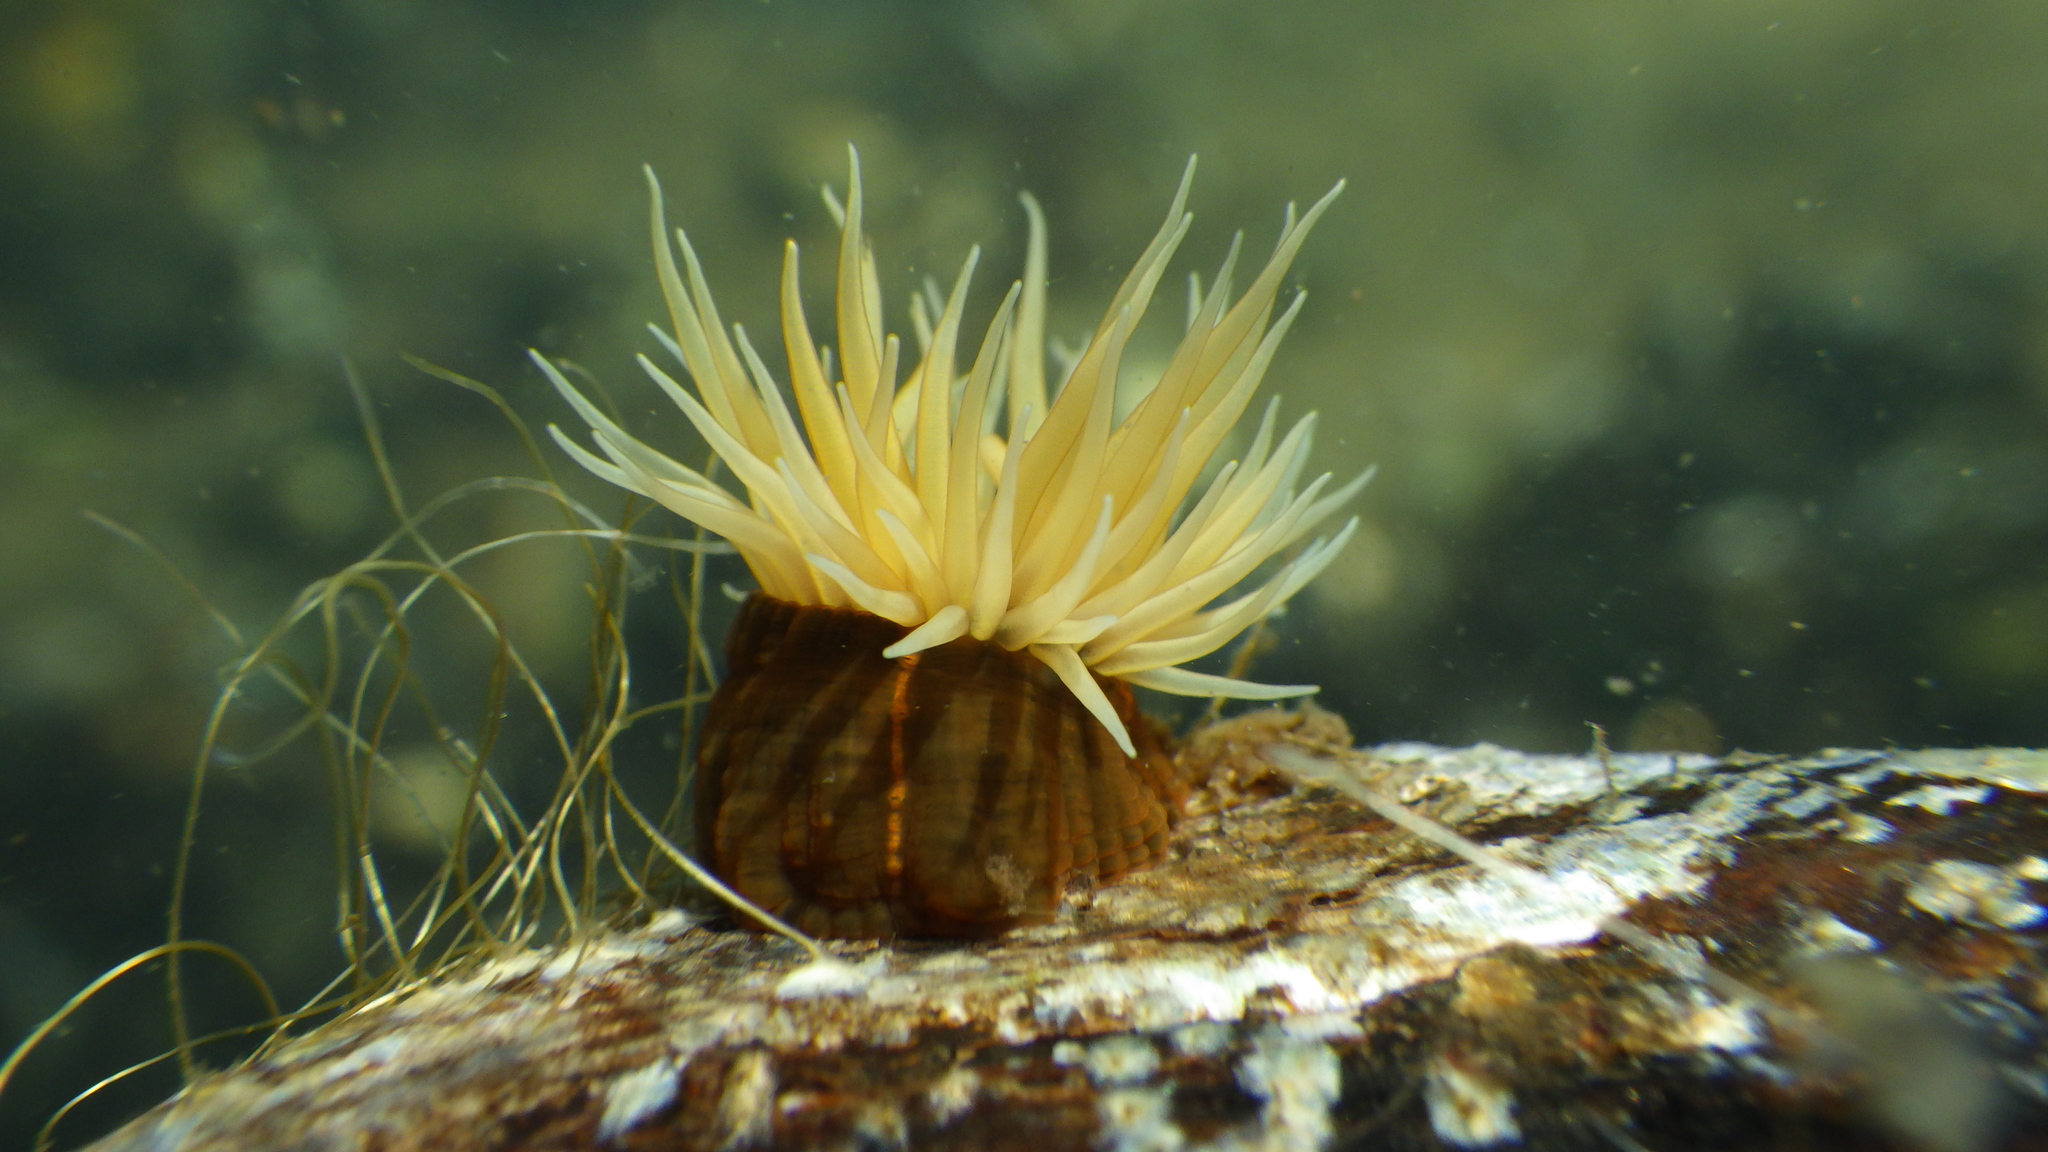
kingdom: Animalia
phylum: Cnidaria
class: Anthozoa
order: Actiniaria
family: Diadumenidae
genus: Diadumene
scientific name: Diadumene lineata
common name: Orange-striped anemone
